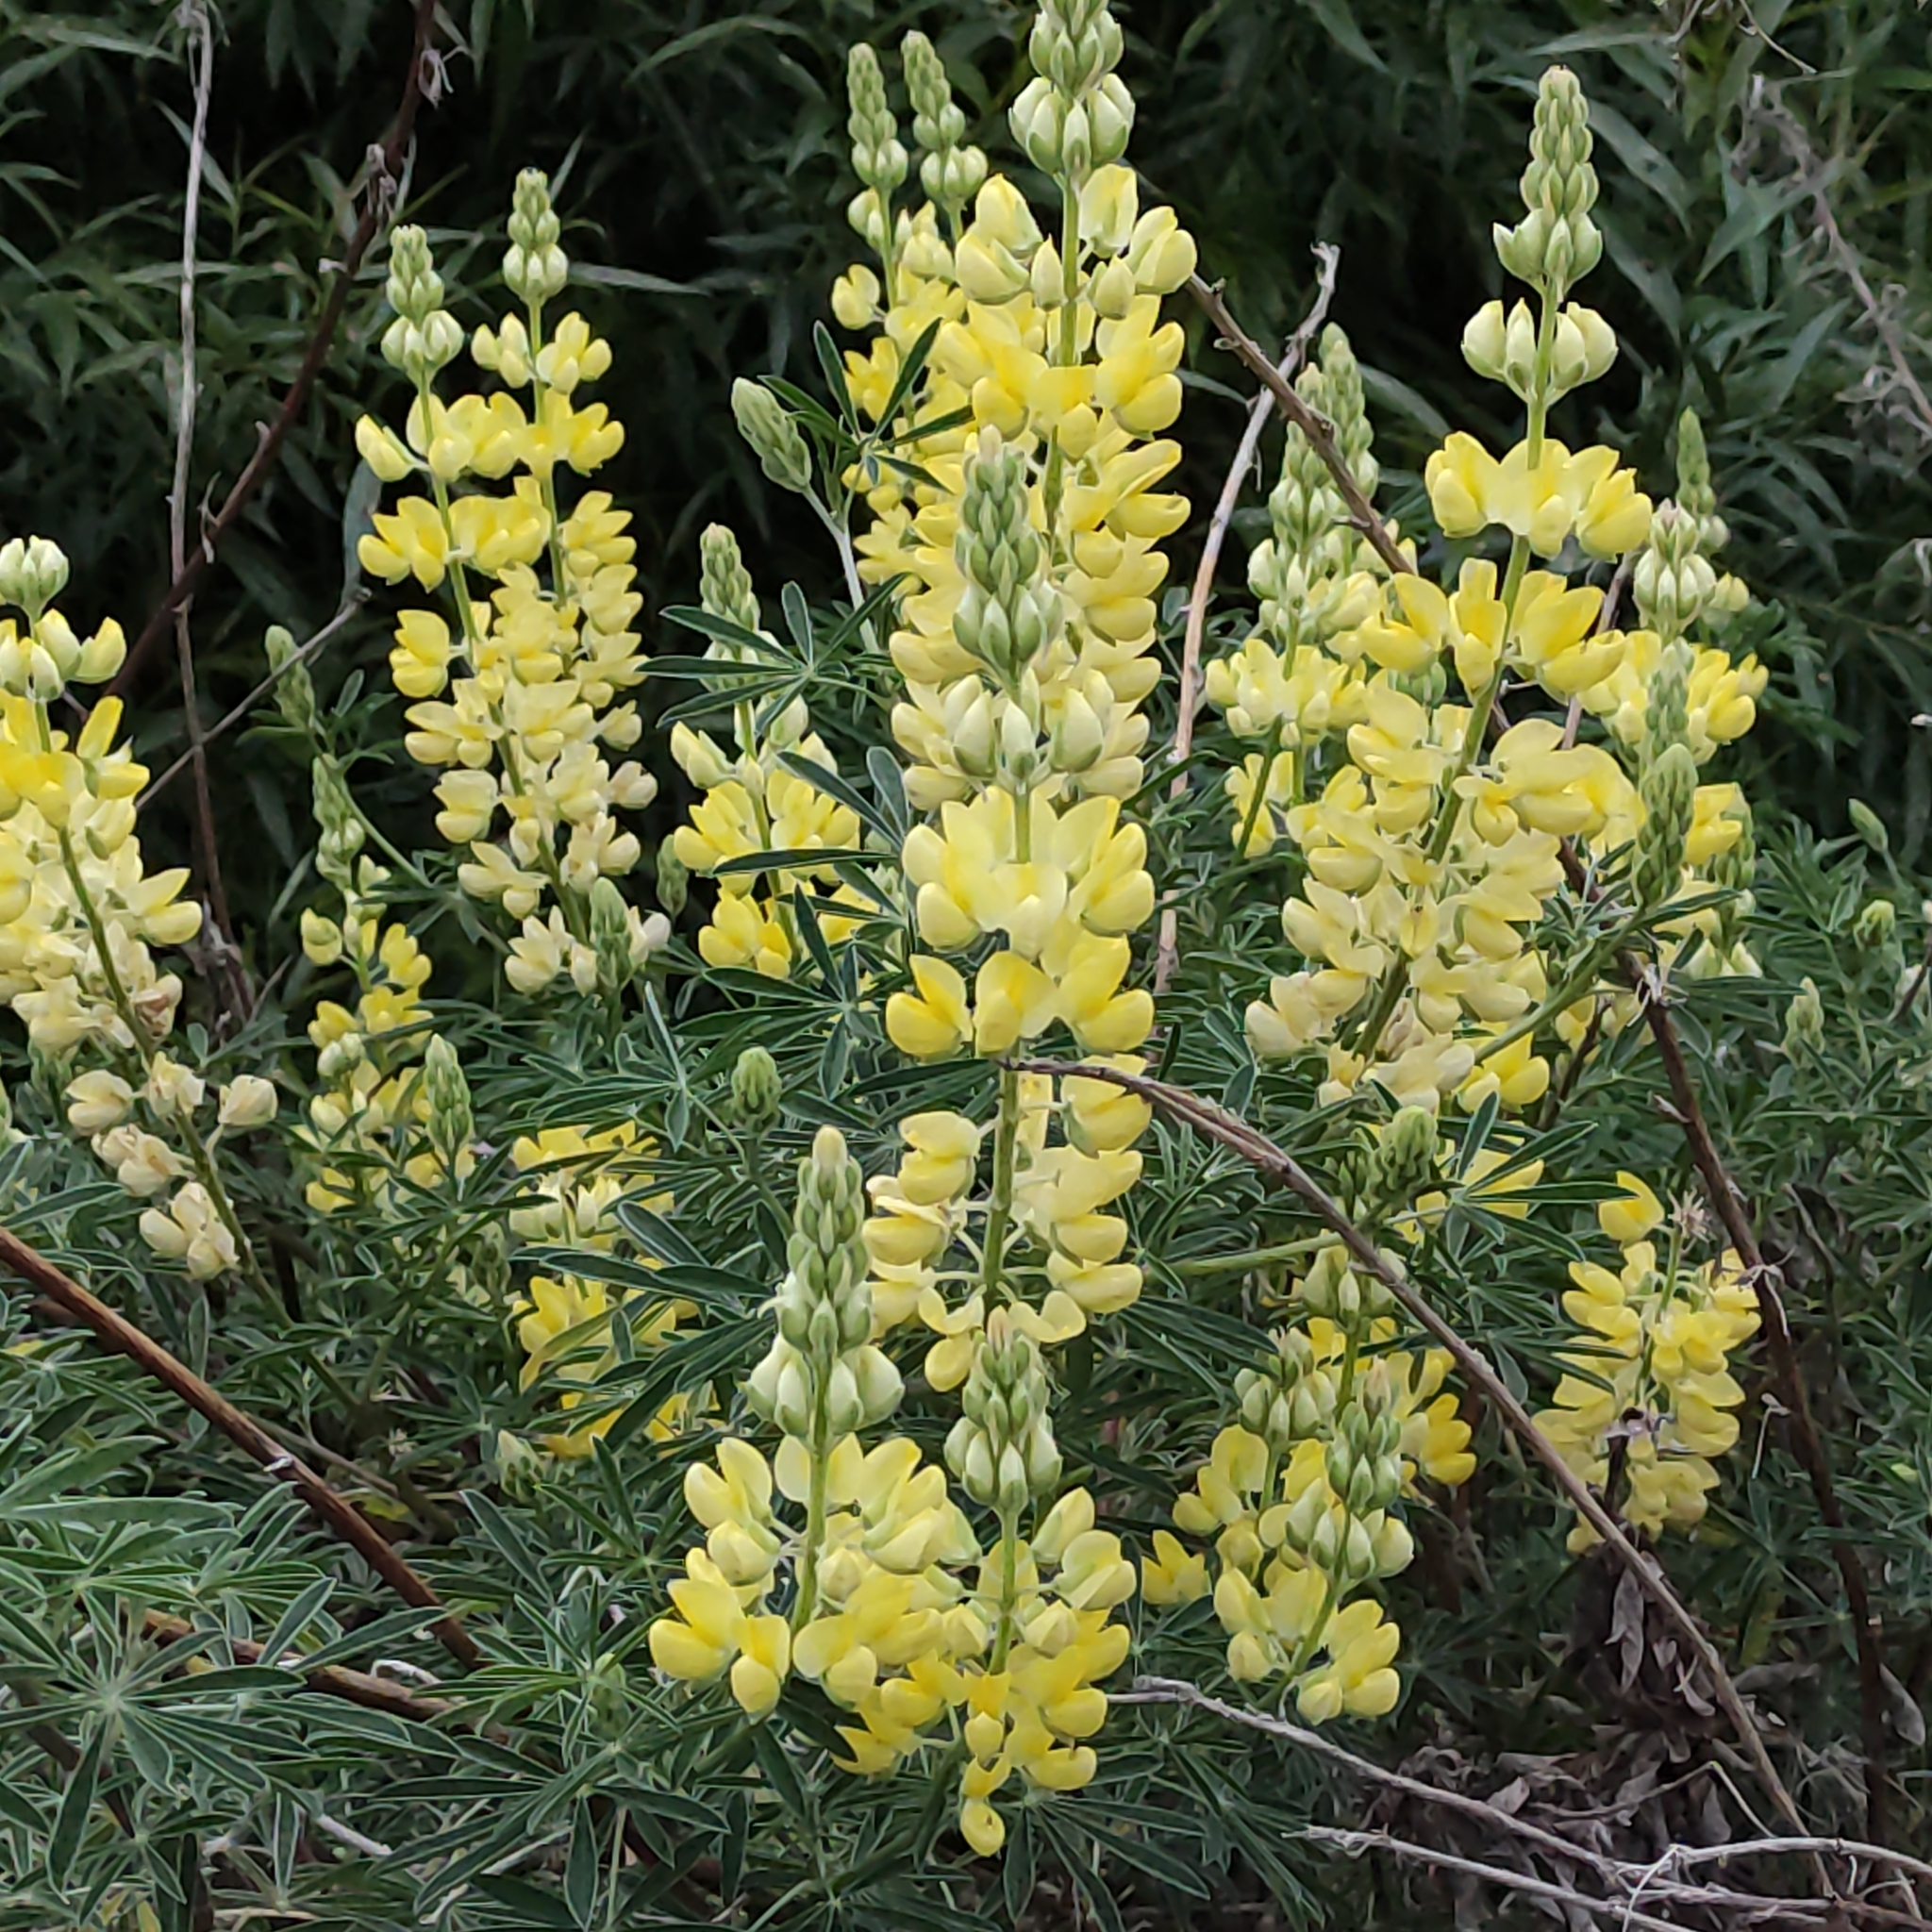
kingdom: Plantae
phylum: Tracheophyta
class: Magnoliopsida
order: Fabales
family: Fabaceae
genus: Lupinus
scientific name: Lupinus arboreus
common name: Yellow bush lupine
